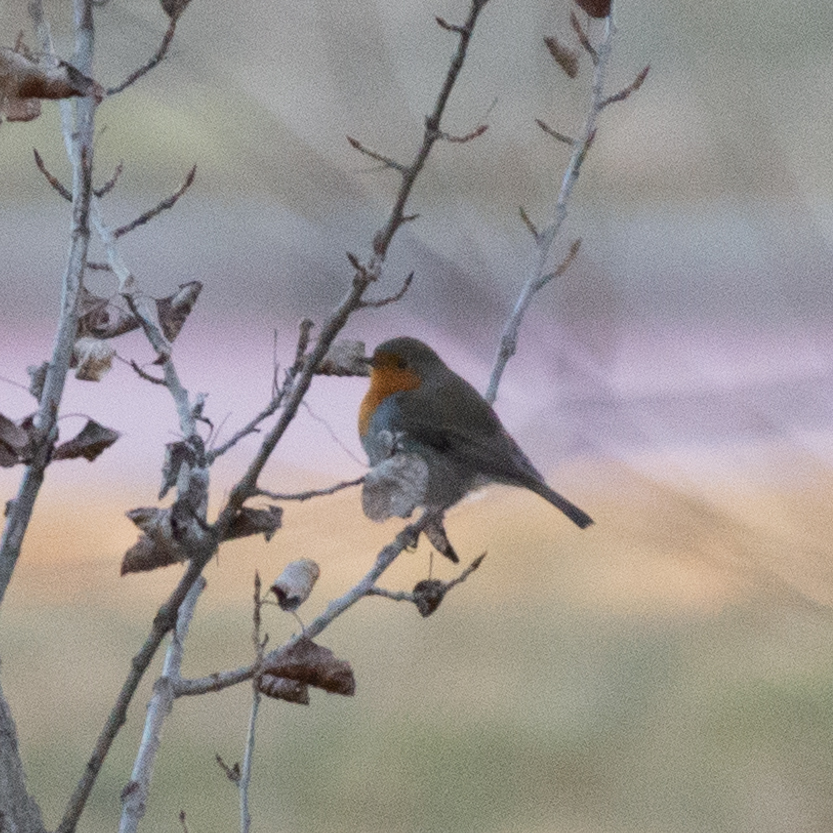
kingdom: Animalia
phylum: Chordata
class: Aves
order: Passeriformes
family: Muscicapidae
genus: Erithacus
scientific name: Erithacus rubecula
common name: European robin
